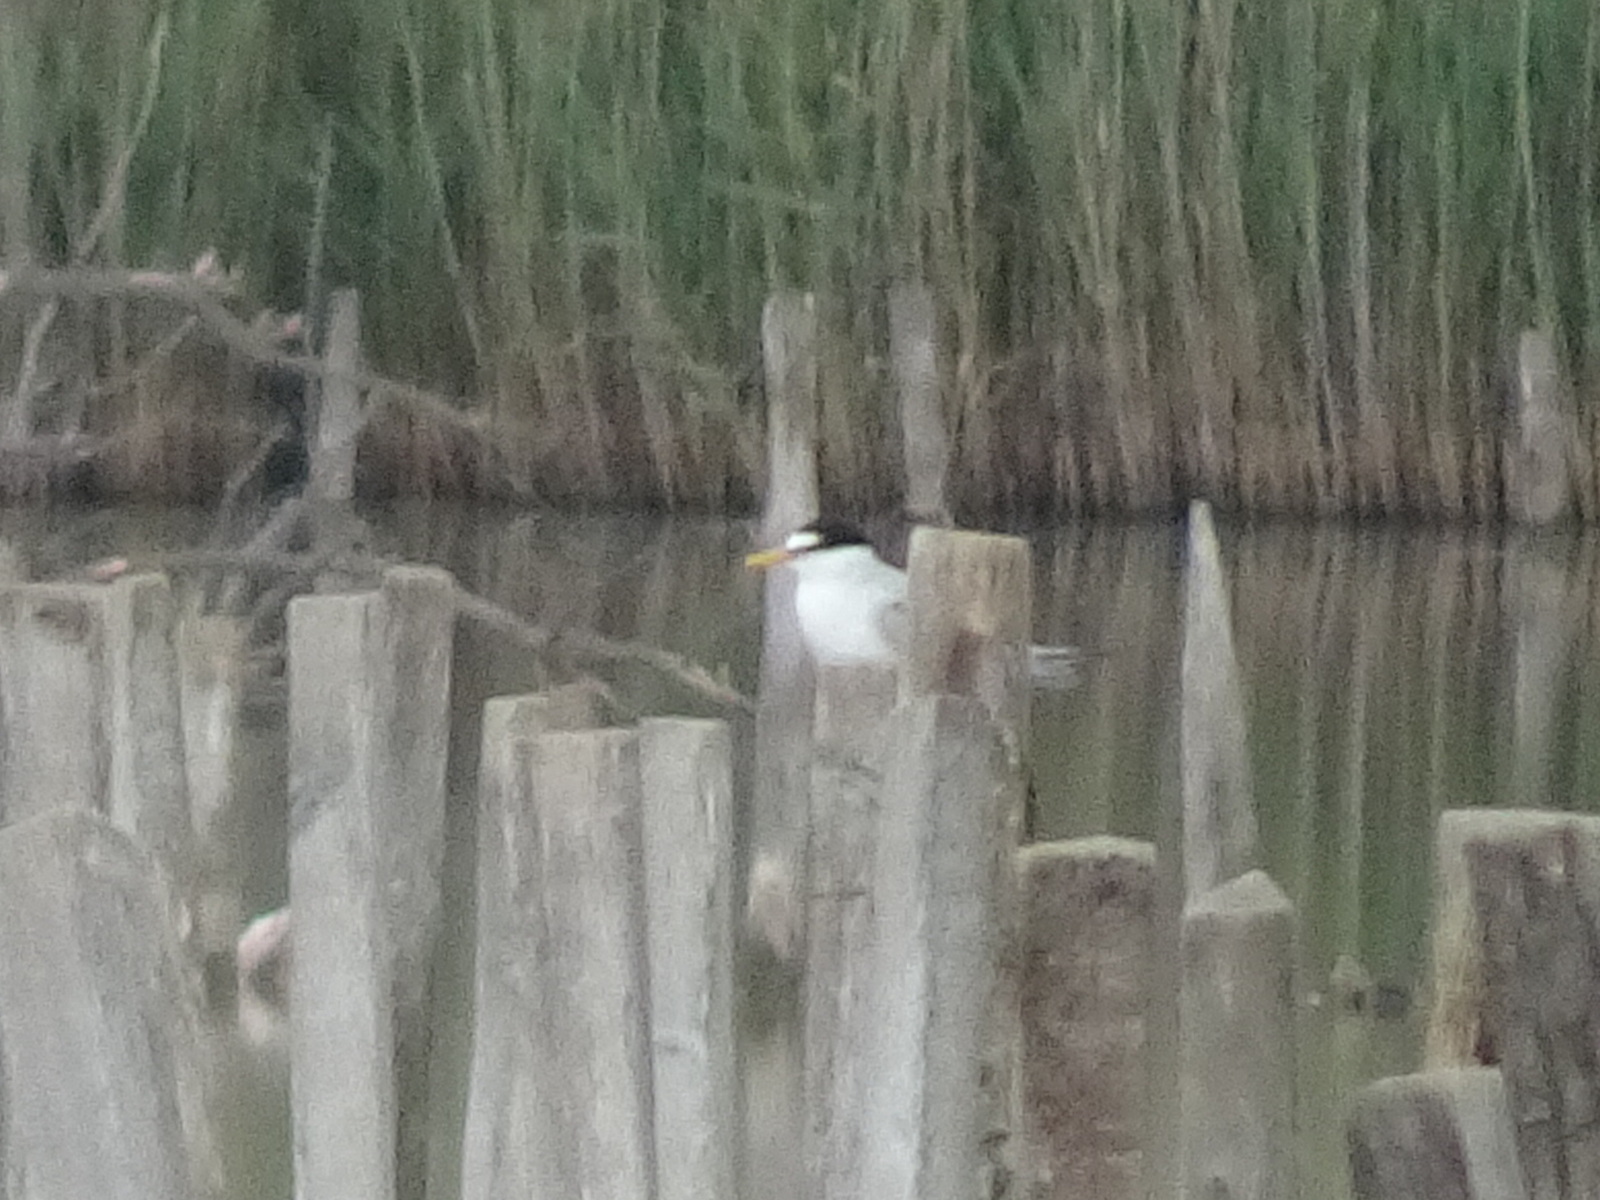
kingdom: Animalia
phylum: Chordata
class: Aves
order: Charadriiformes
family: Laridae
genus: Sternula
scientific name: Sternula albifrons
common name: Little tern
